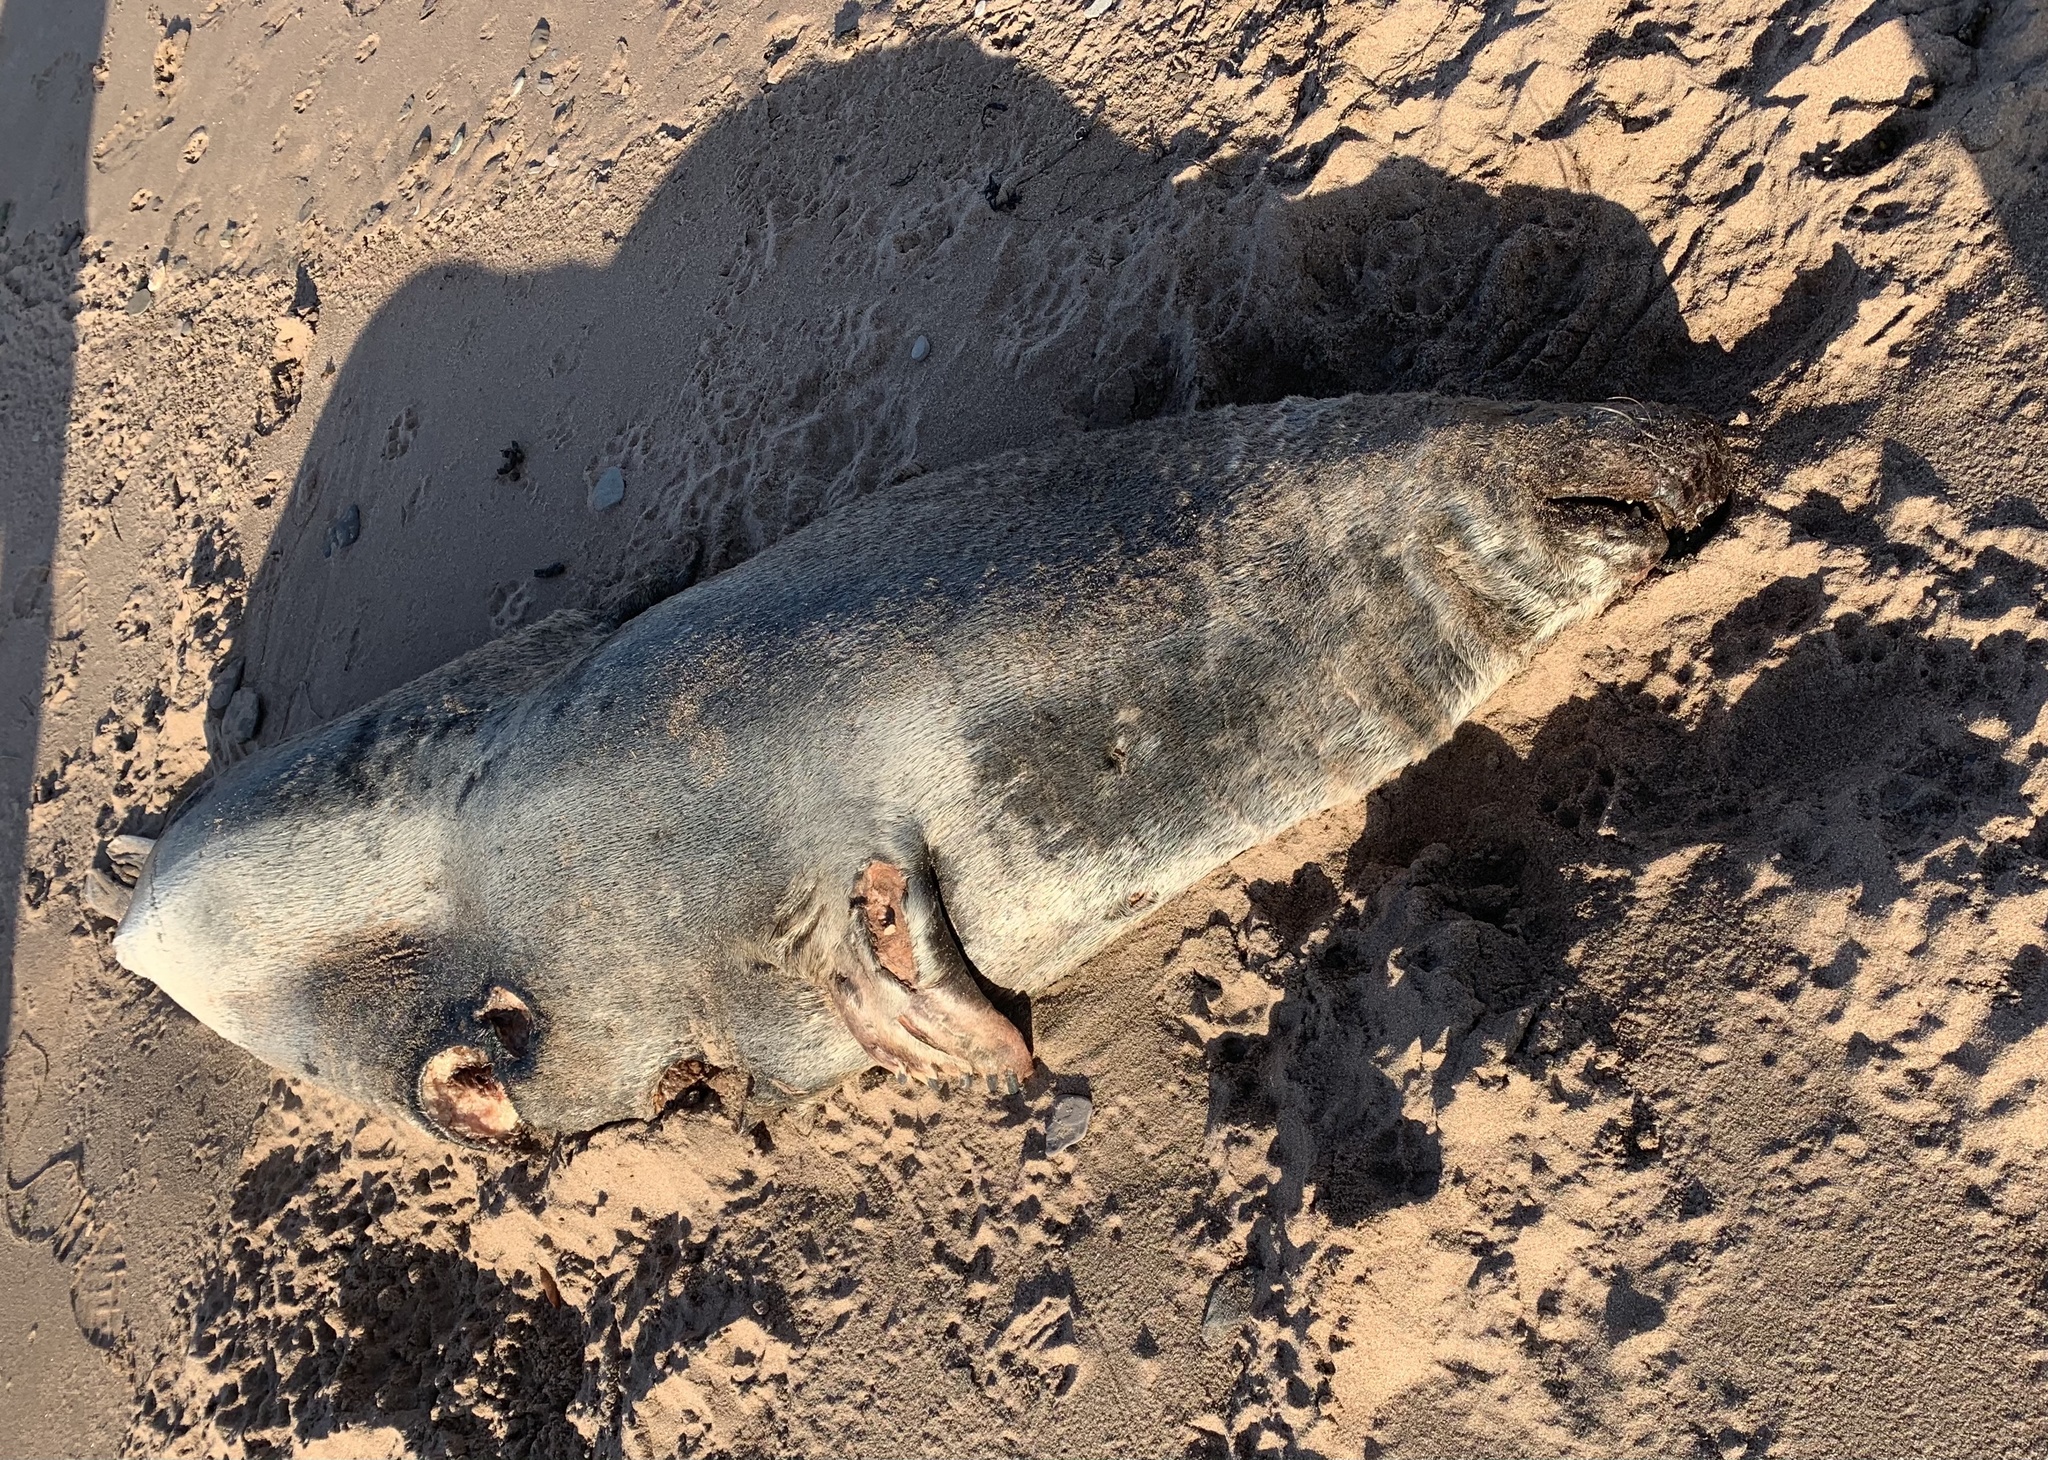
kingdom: Animalia
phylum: Chordata
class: Mammalia
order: Carnivora
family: Phocidae
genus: Halichoerus
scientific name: Halichoerus grypus
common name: Grey seal
